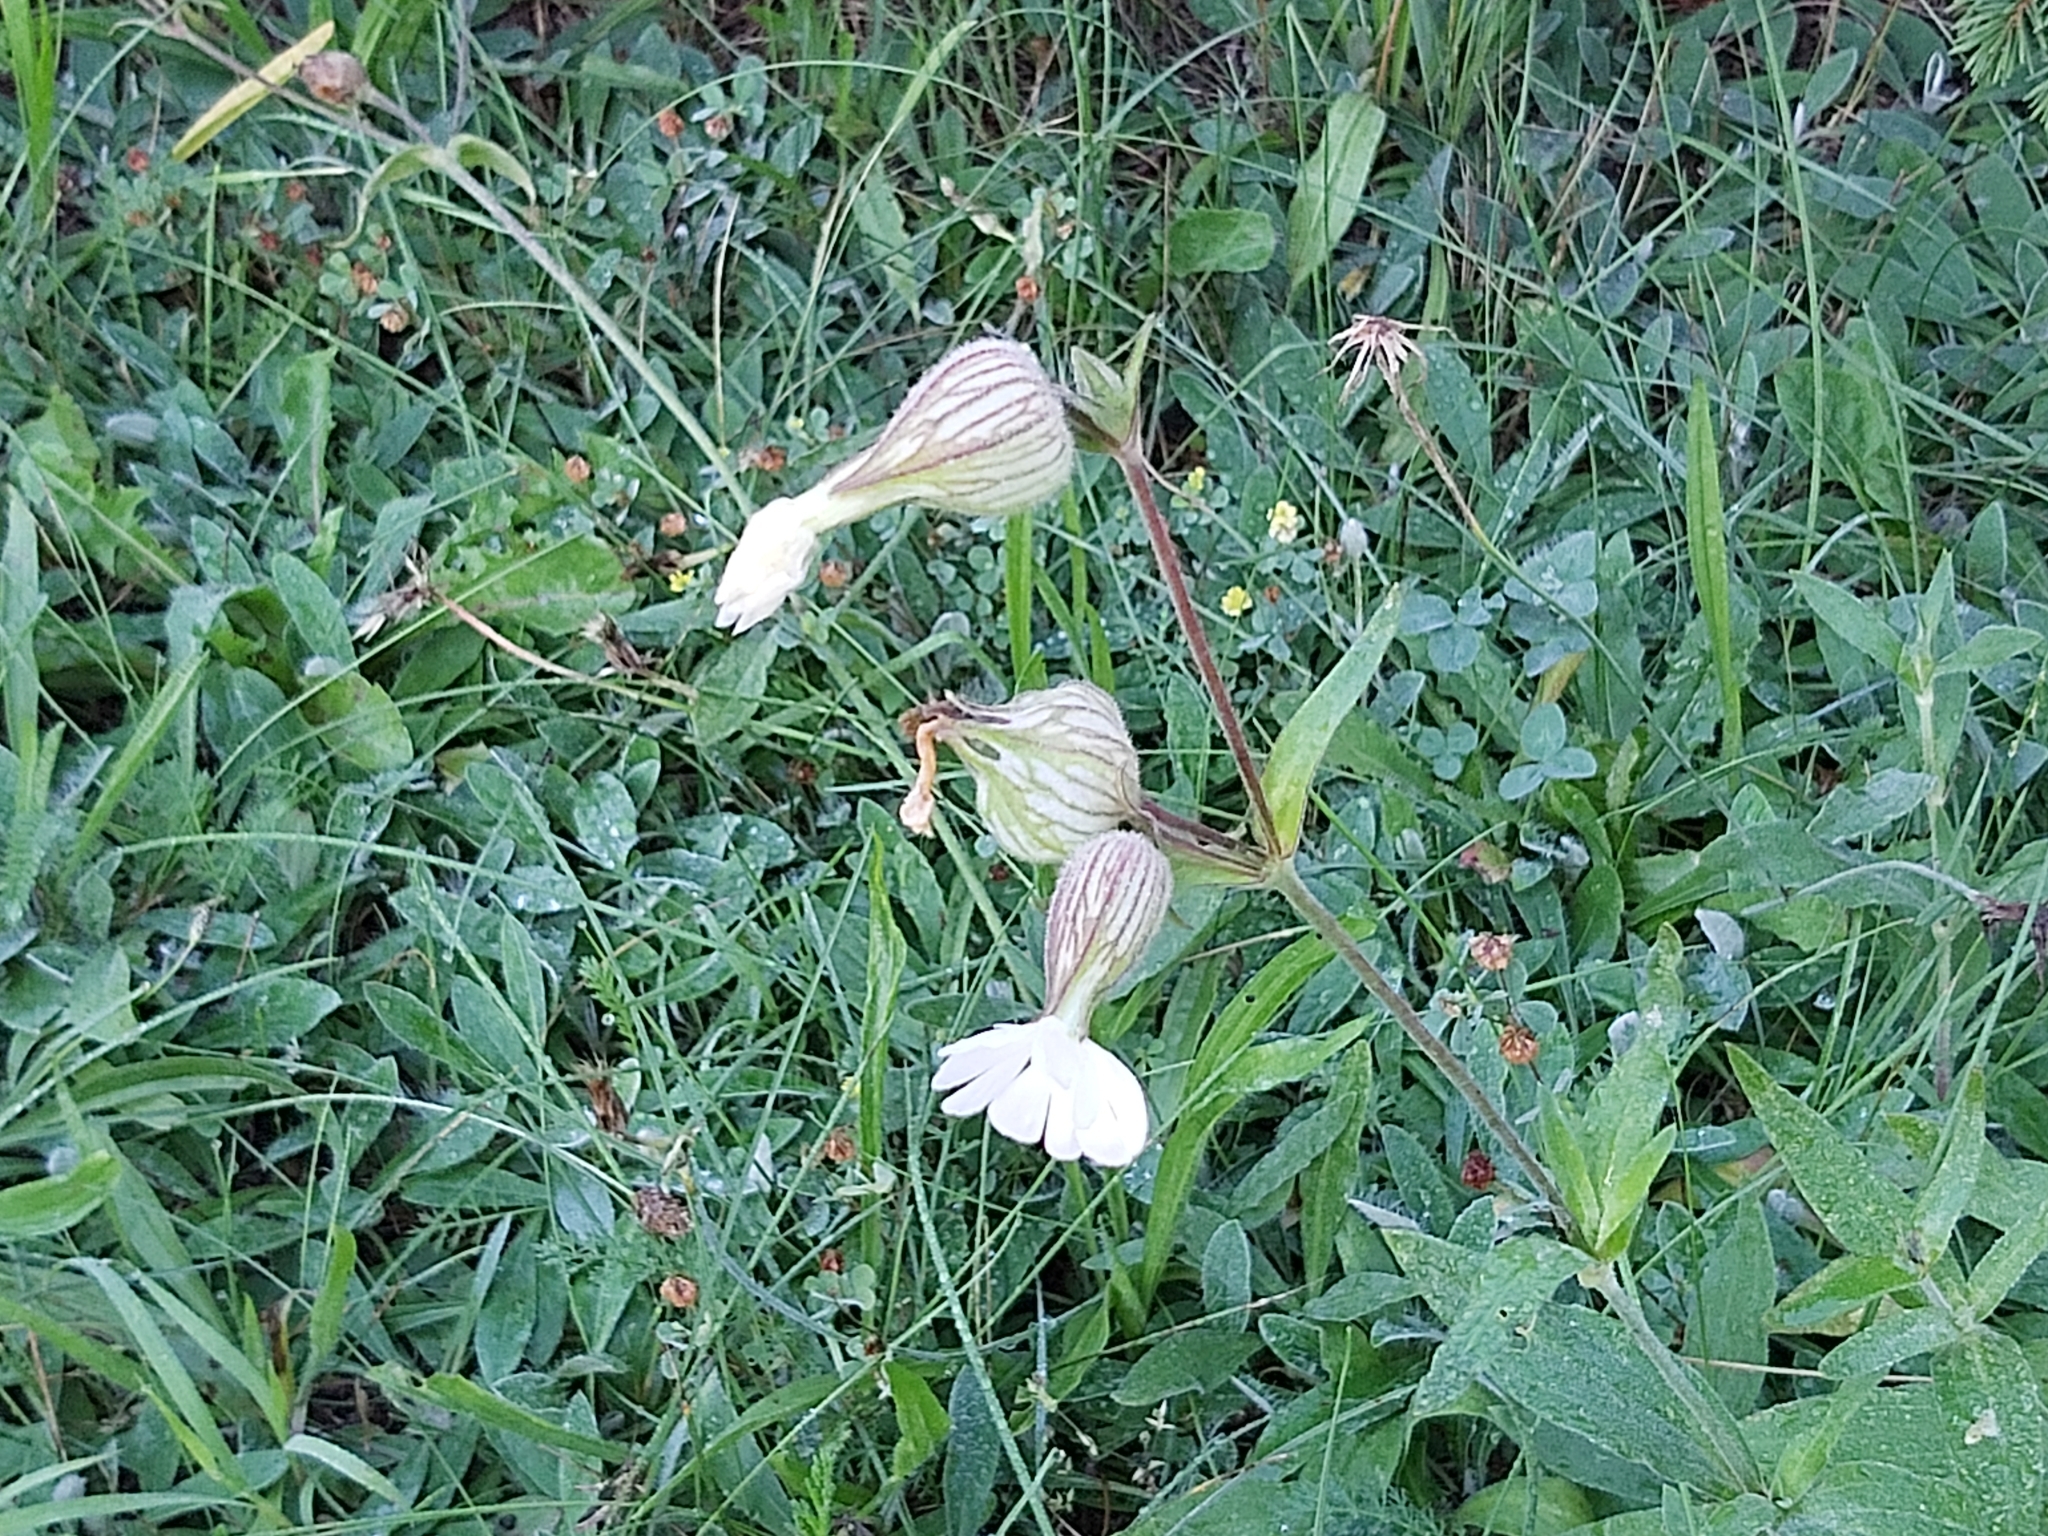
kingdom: Plantae
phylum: Tracheophyta
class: Magnoliopsida
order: Caryophyllales
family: Caryophyllaceae
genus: Silene
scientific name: Silene latifolia
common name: White campion
